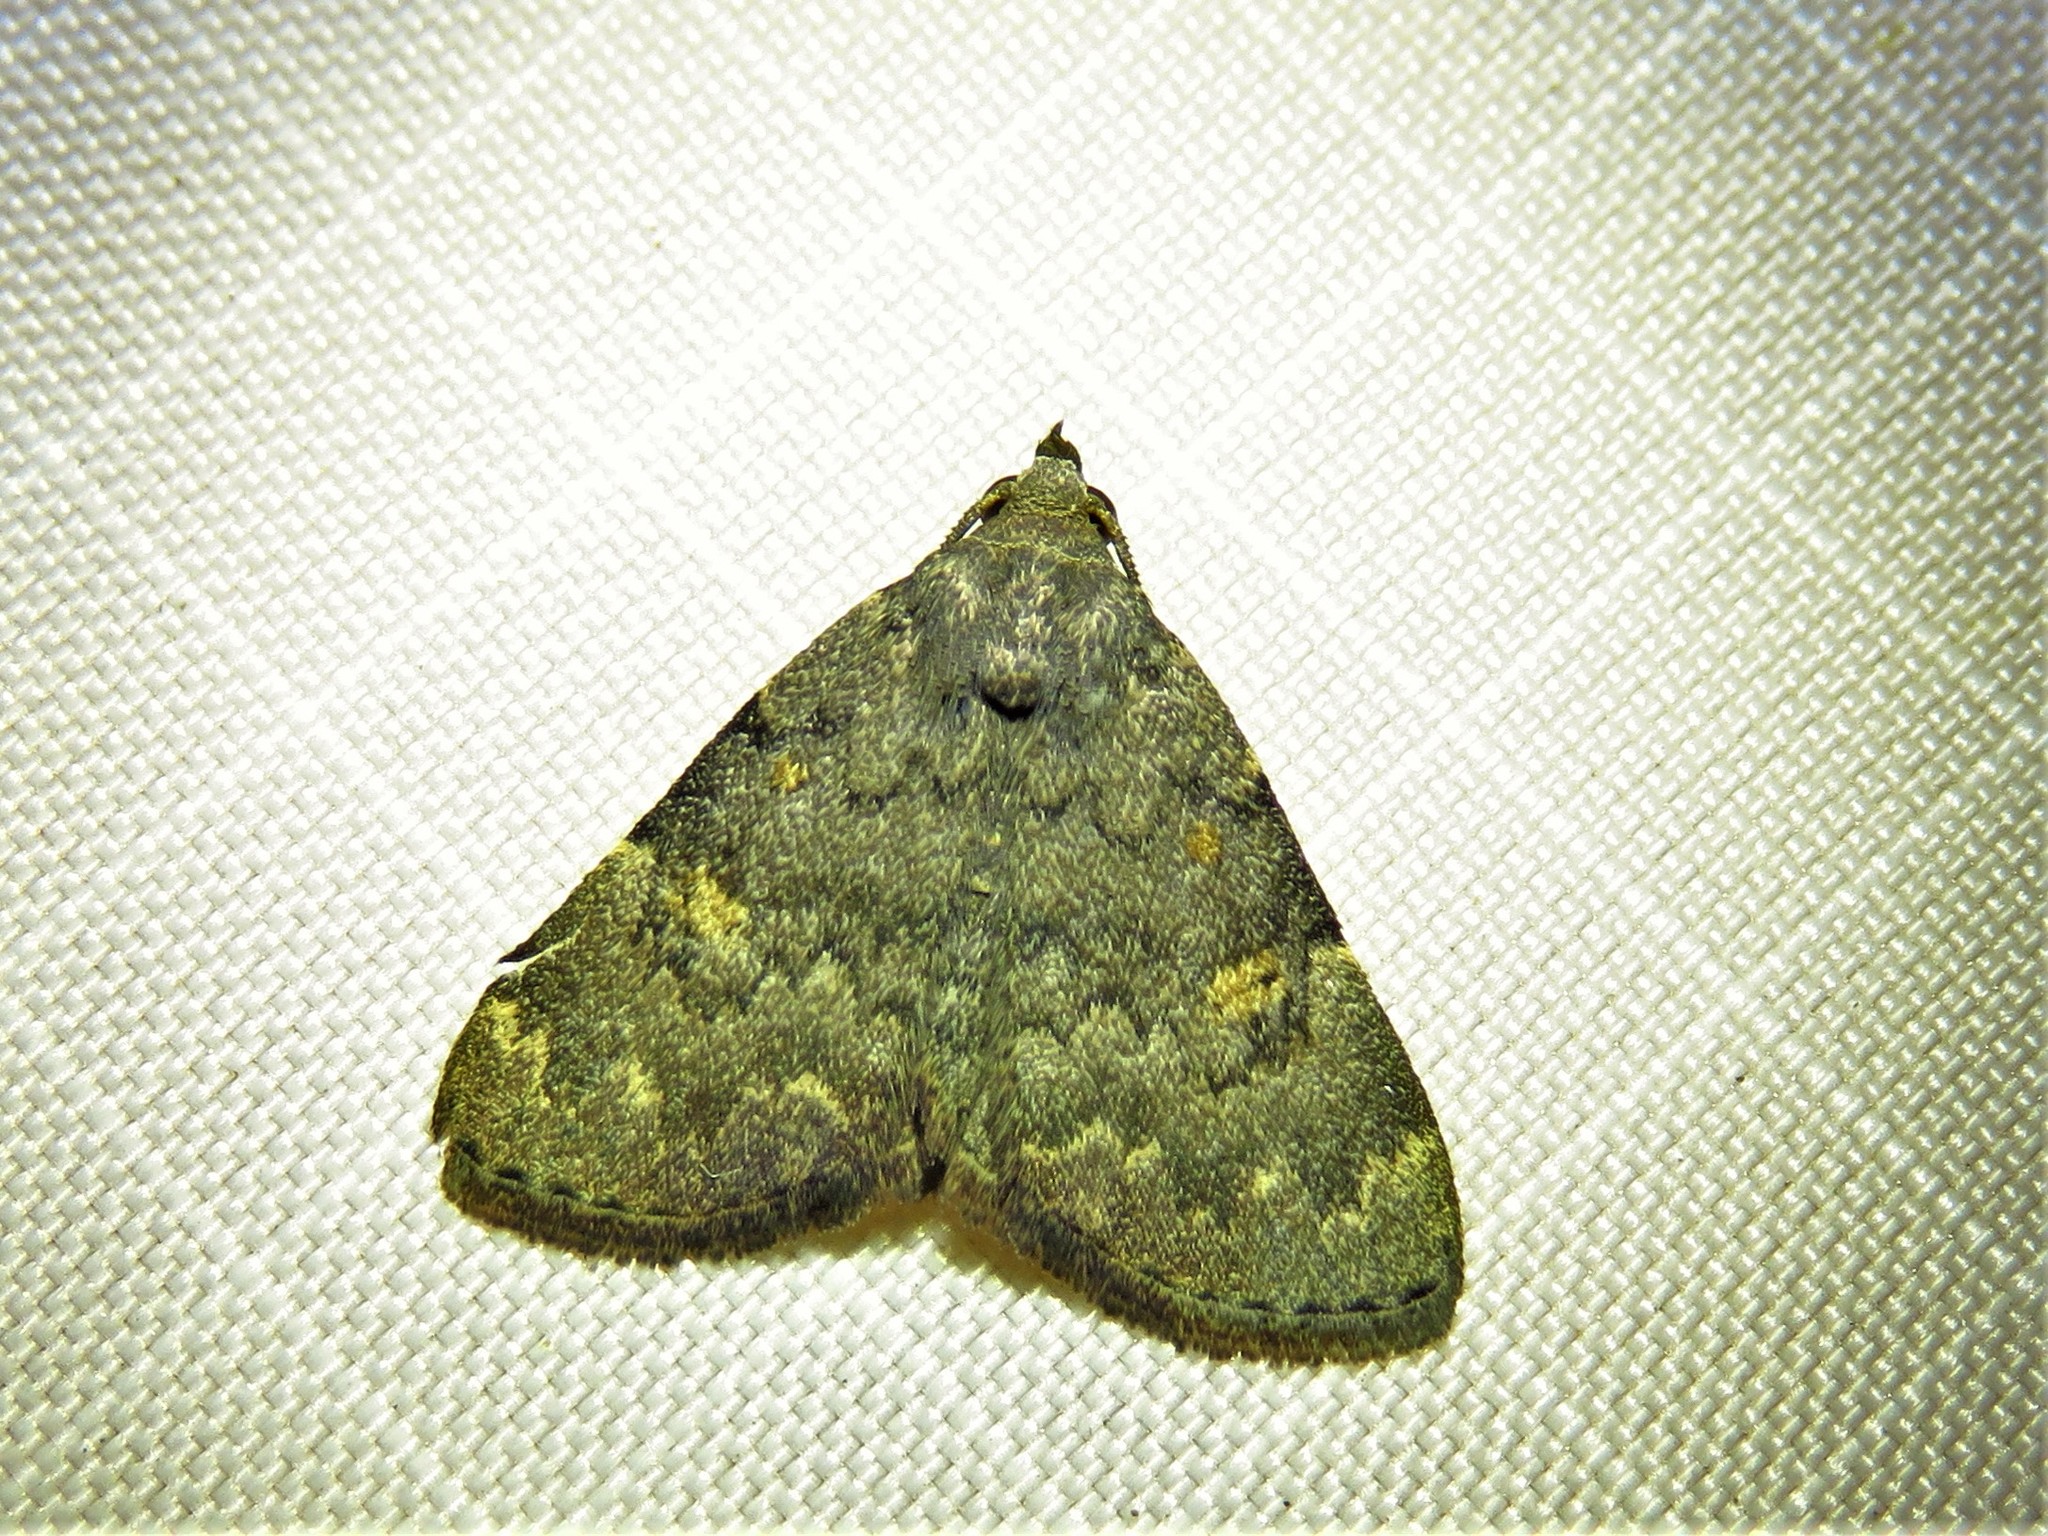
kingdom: Animalia
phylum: Arthropoda
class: Insecta
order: Lepidoptera
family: Erebidae
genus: Idia
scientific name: Idia aemula
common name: Common idia moth
